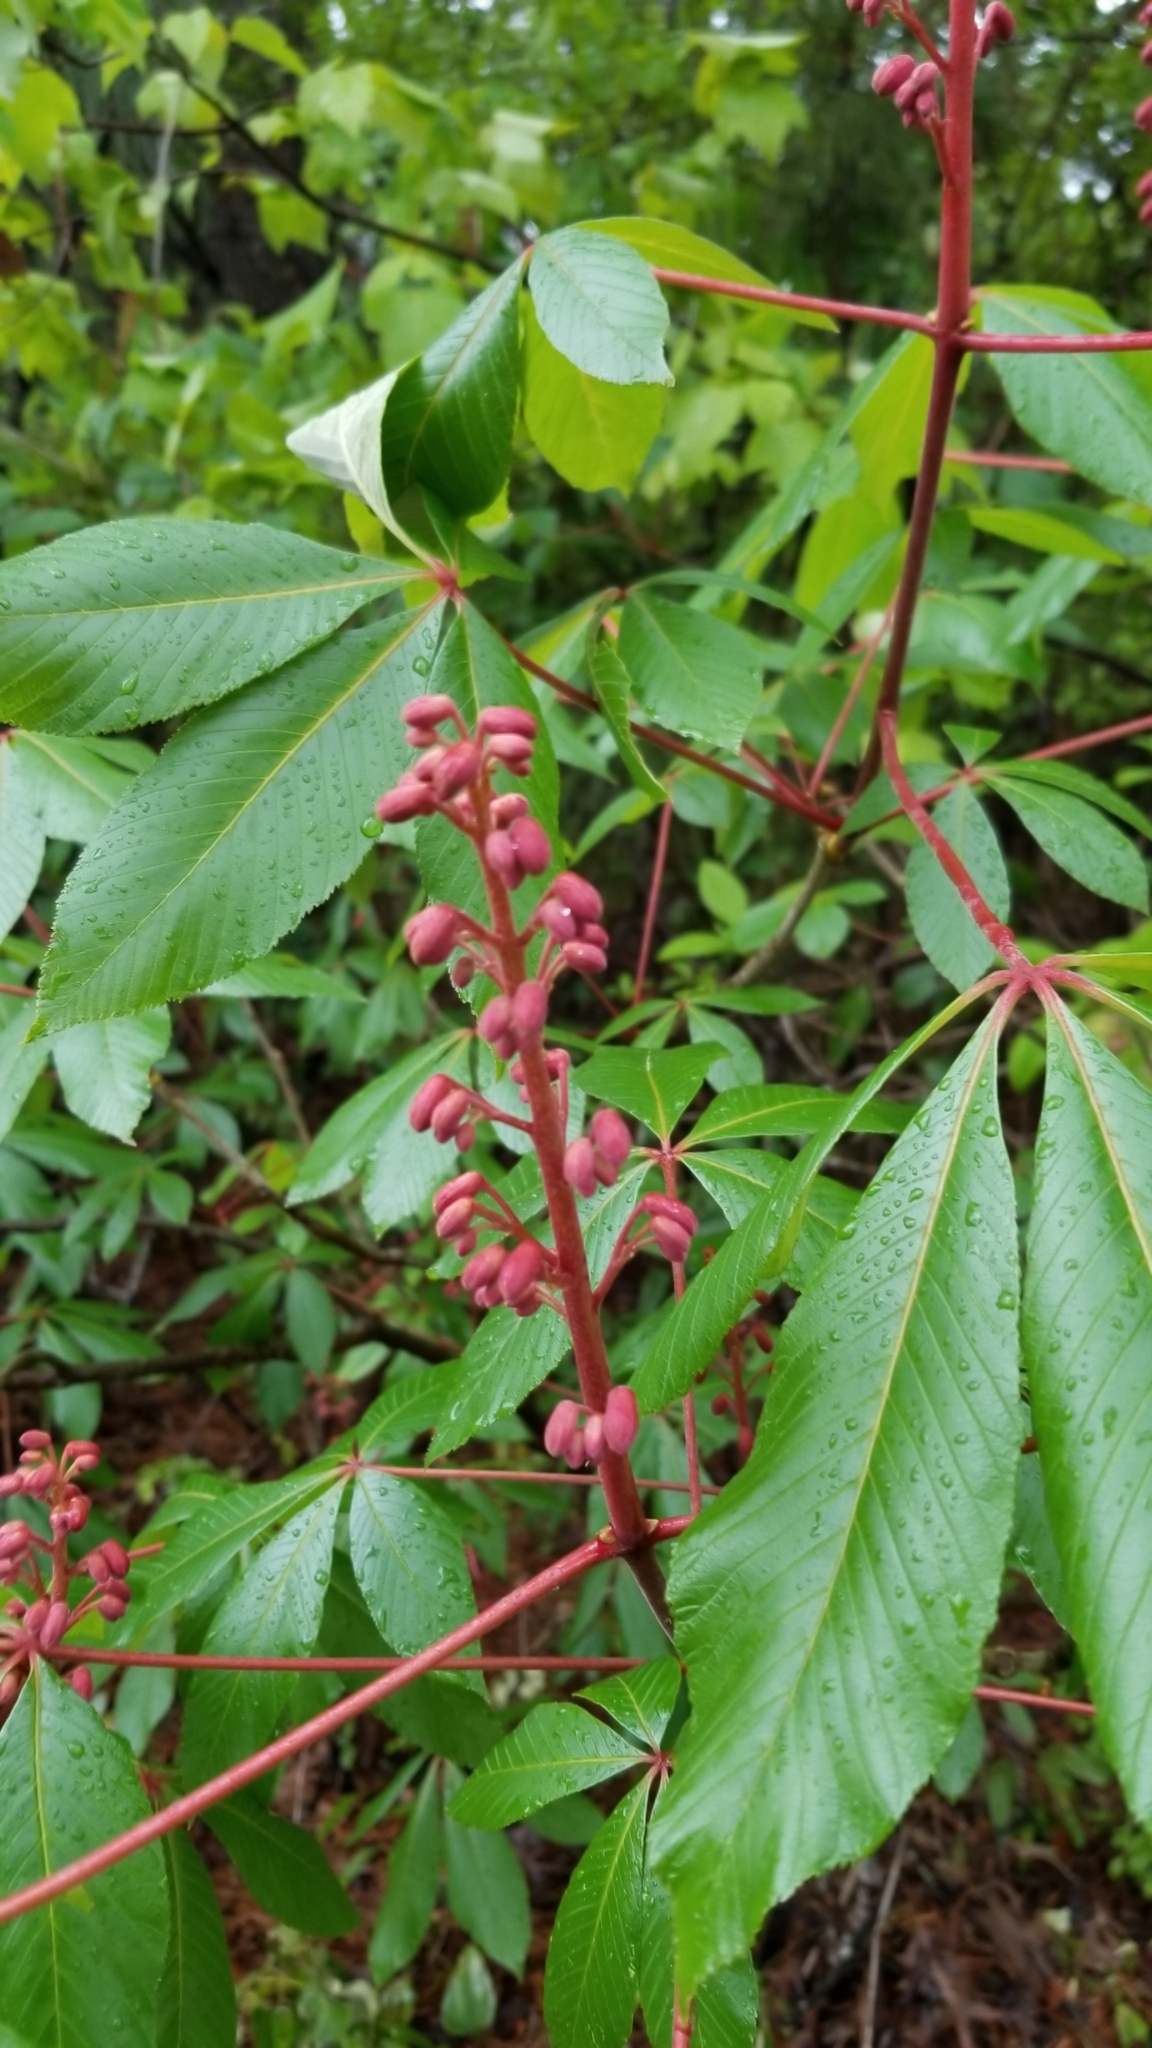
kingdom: Plantae
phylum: Tracheophyta
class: Magnoliopsida
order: Sapindales
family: Sapindaceae
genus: Aesculus
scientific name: Aesculus pavia
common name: Red buckeye
